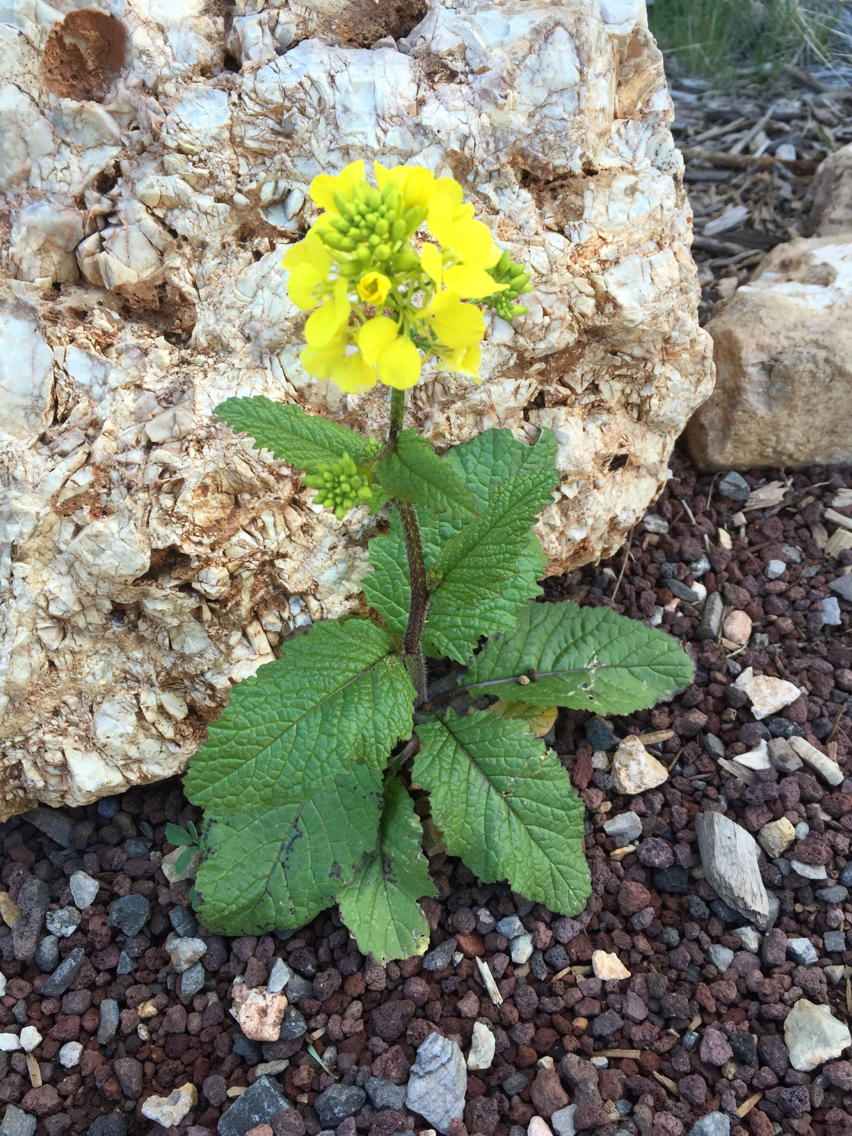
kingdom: Plantae
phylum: Tracheophyta
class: Magnoliopsida
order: Brassicales
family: Brassicaceae
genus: Sinapis
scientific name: Sinapis arvensis
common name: Charlock
